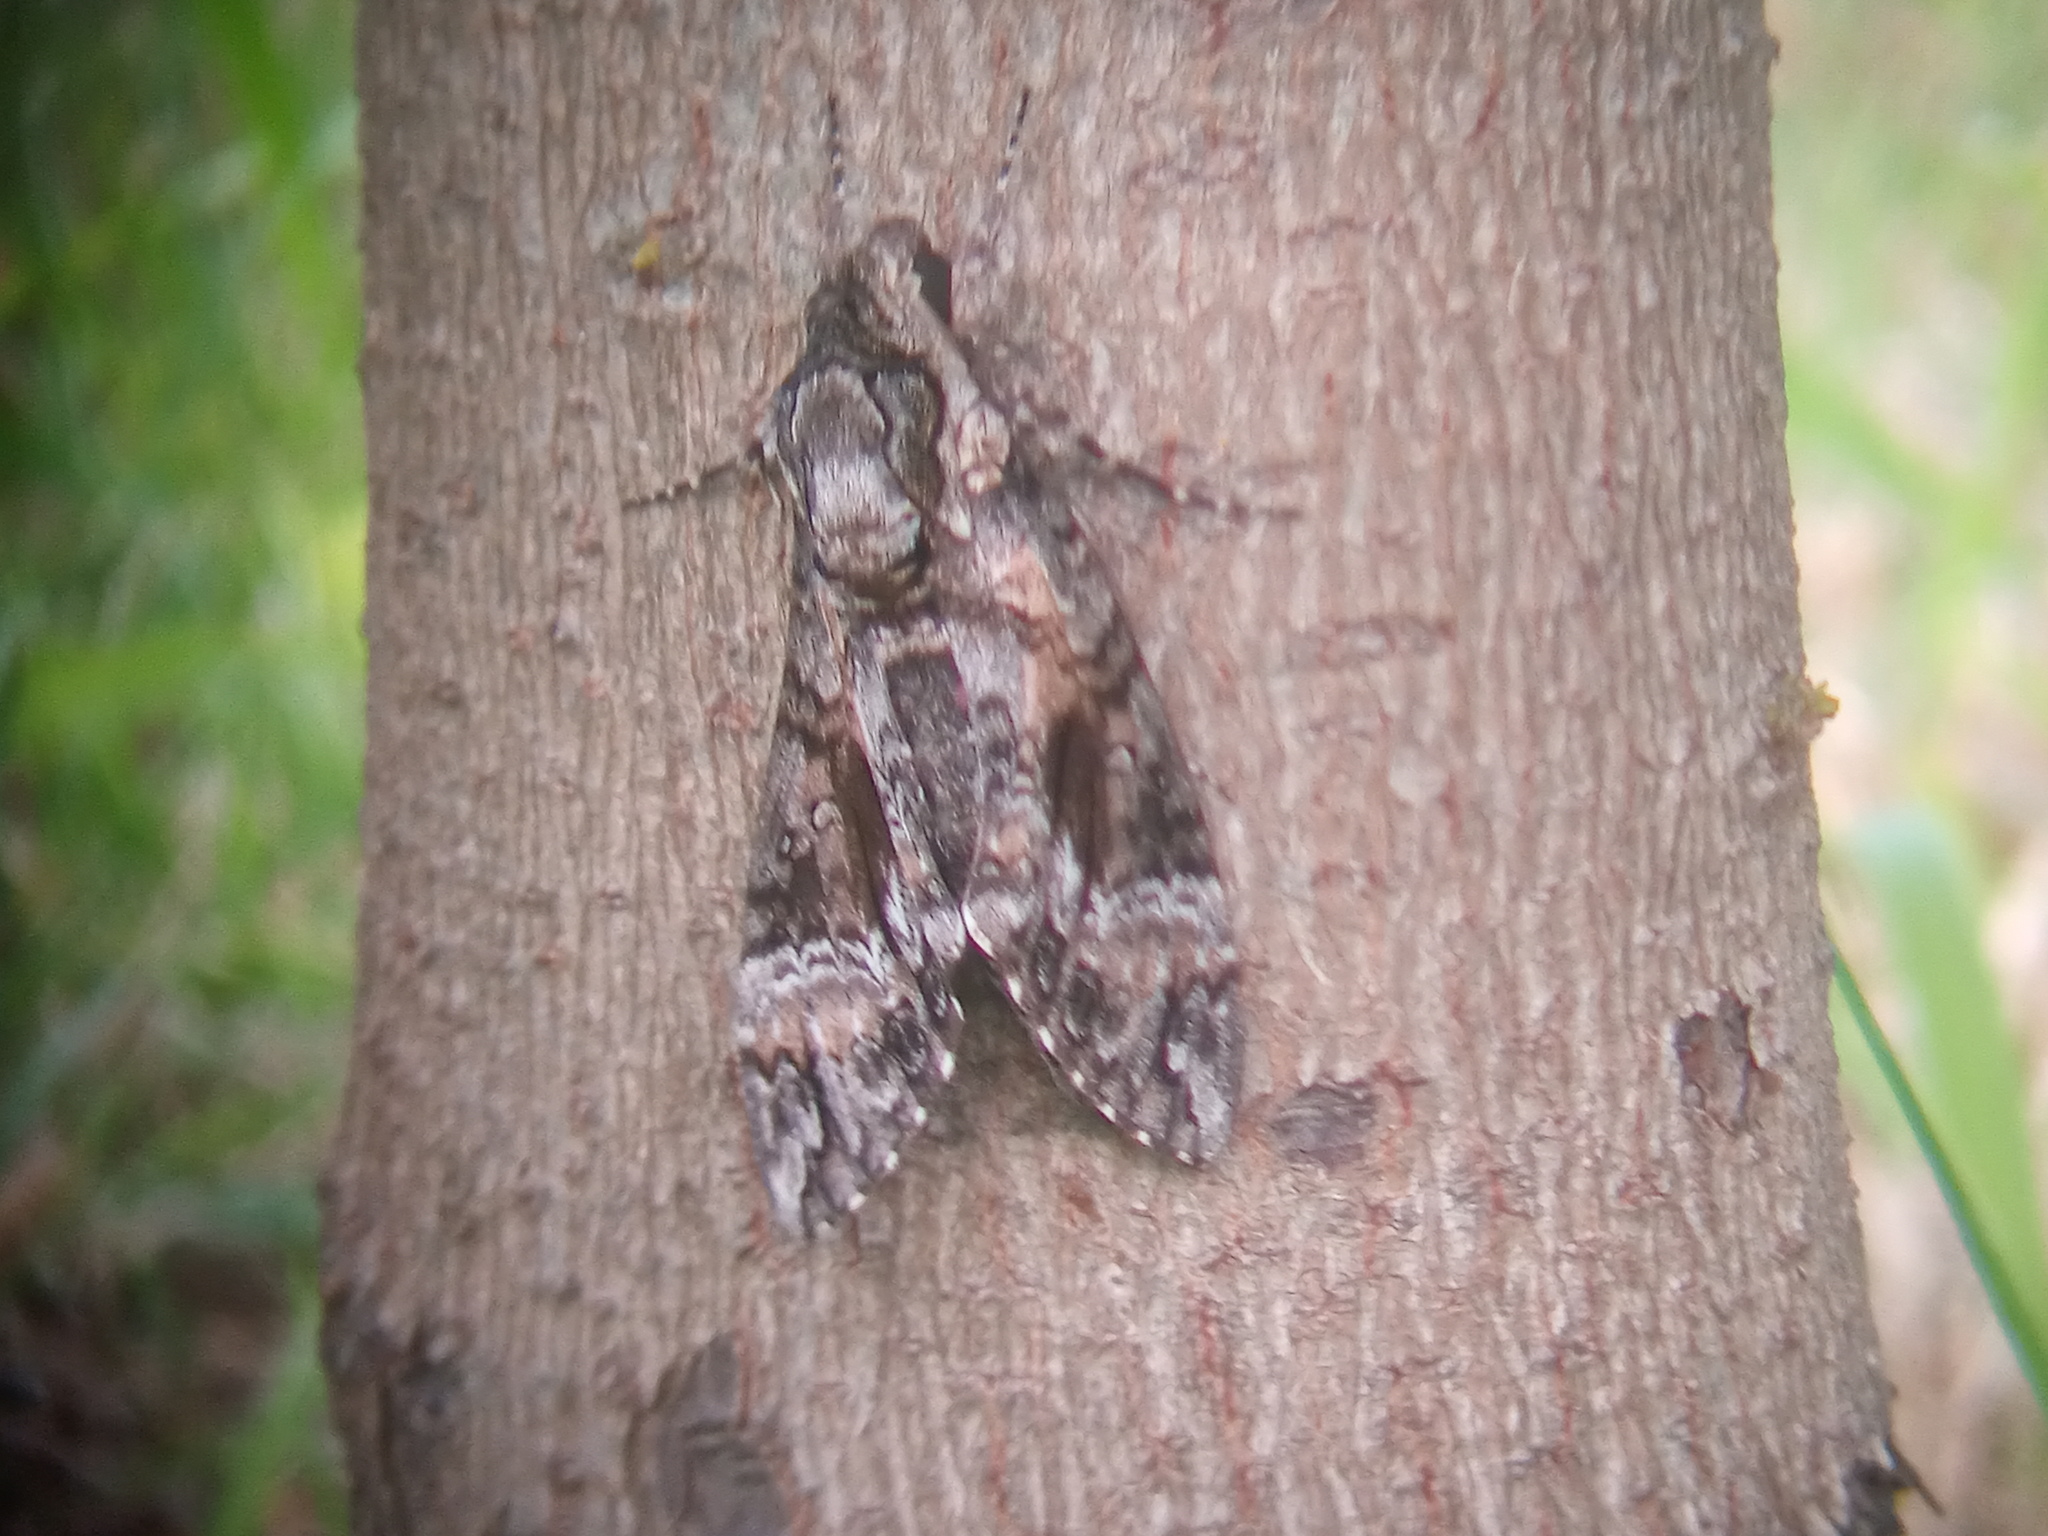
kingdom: Animalia
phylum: Arthropoda
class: Insecta
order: Lepidoptera
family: Sphingidae
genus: Agrius
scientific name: Agrius cingulata
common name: Pink-spotted hawkmoth
